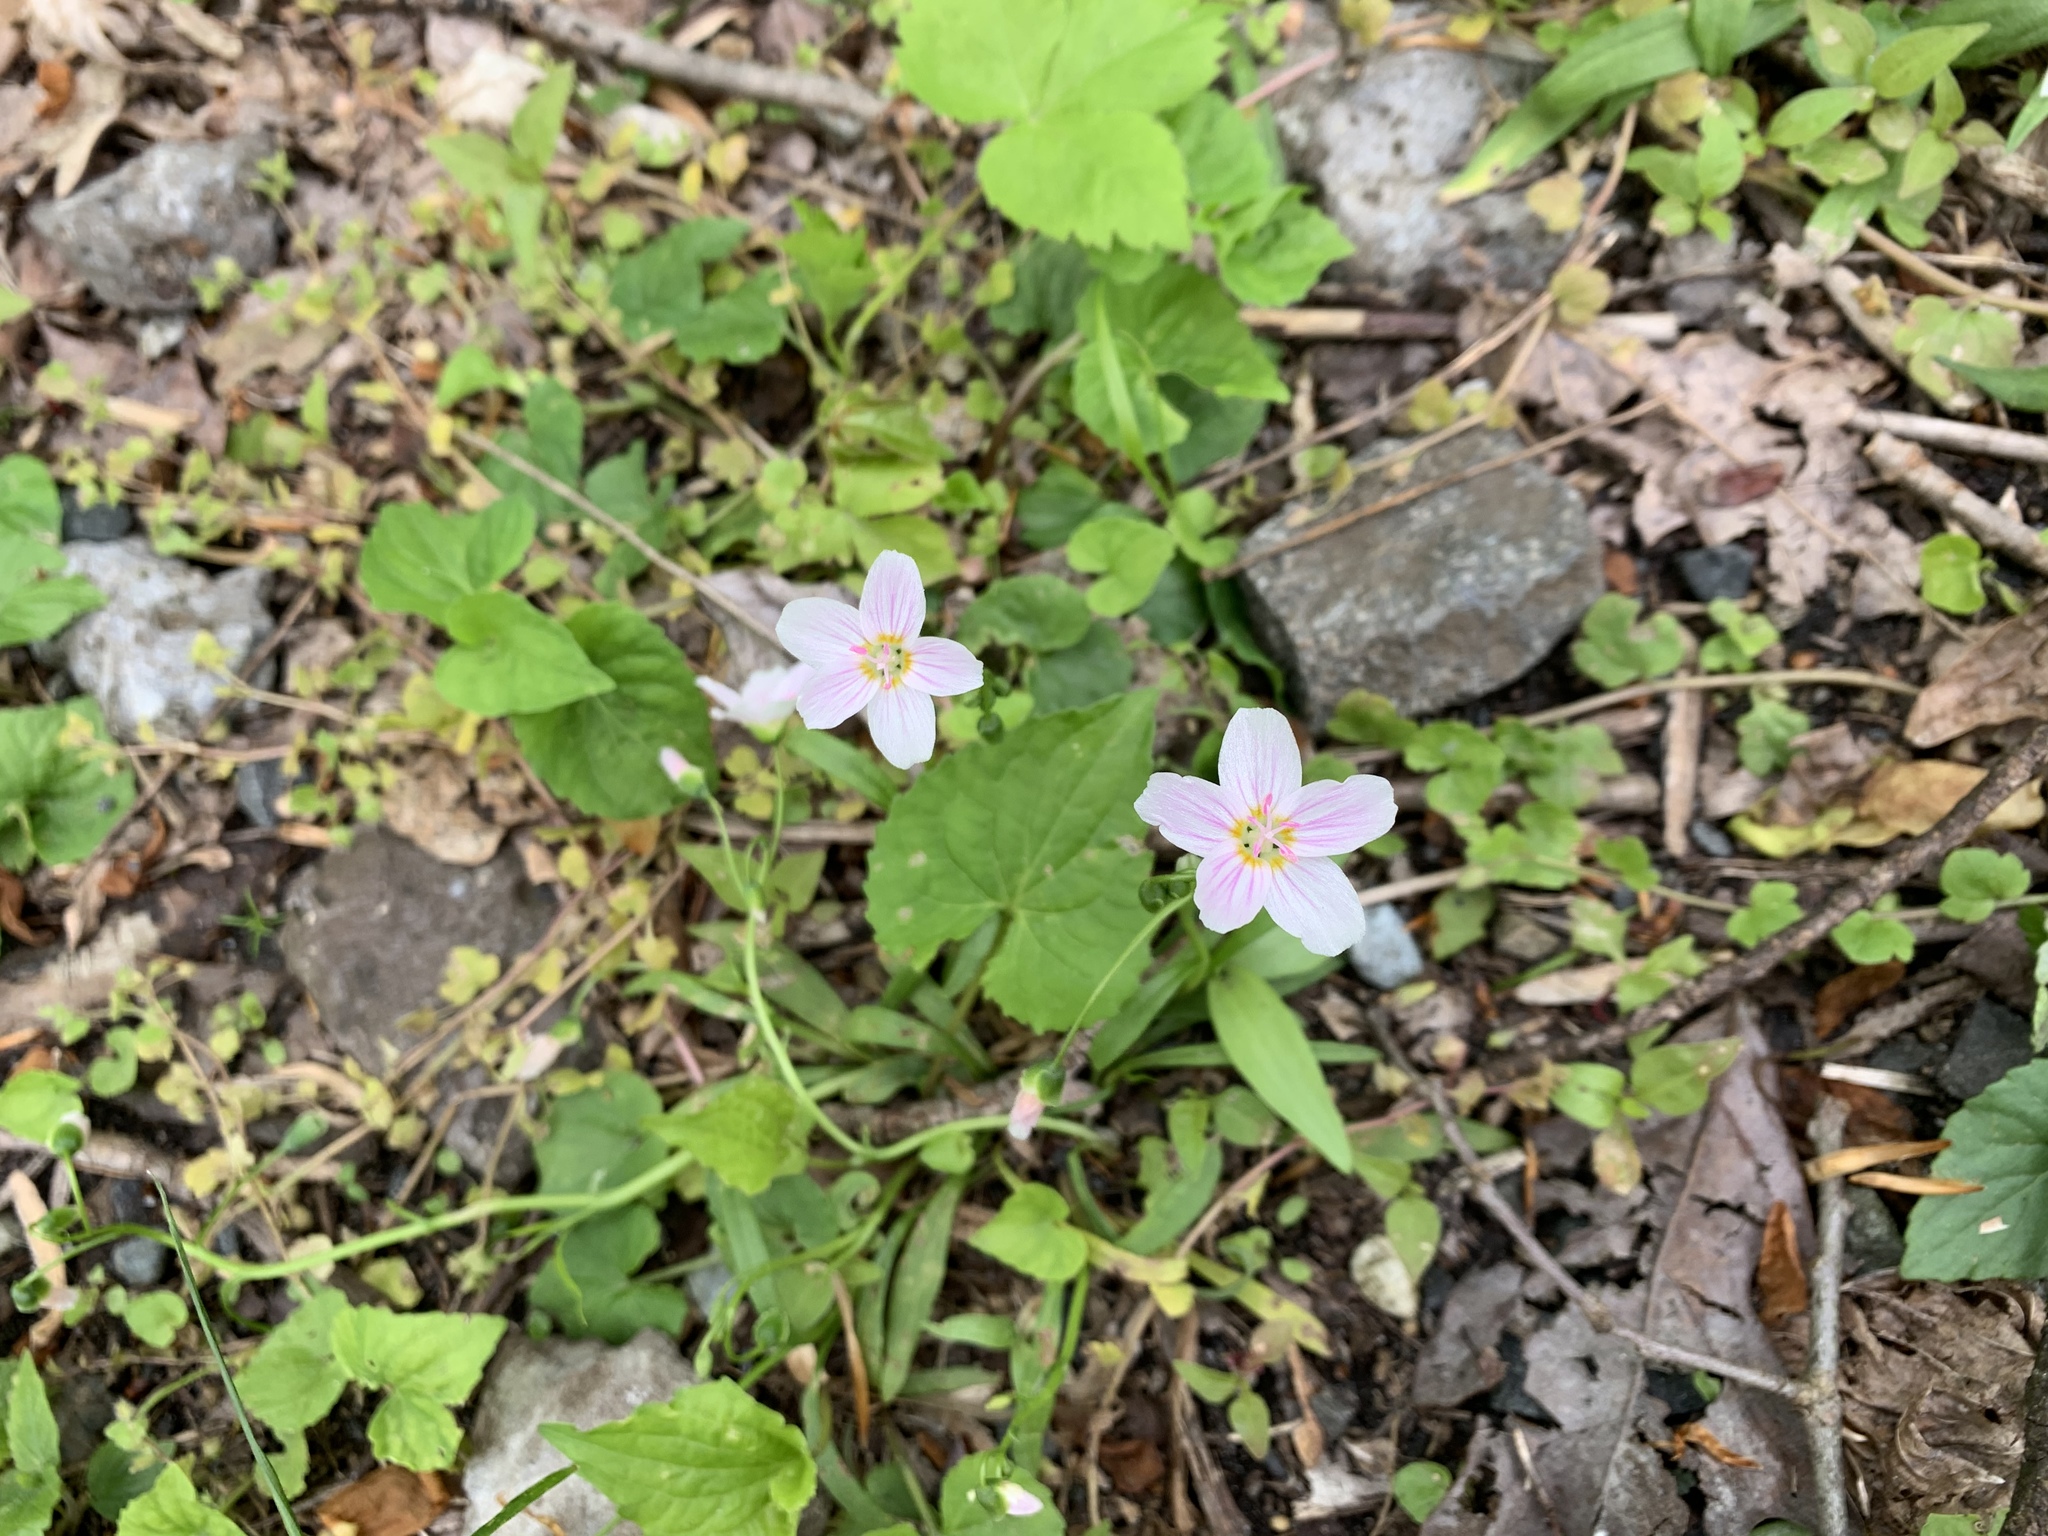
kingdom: Plantae
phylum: Tracheophyta
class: Magnoliopsida
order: Caryophyllales
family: Montiaceae
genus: Claytonia
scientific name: Claytonia virginica
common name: Virginia springbeauty
